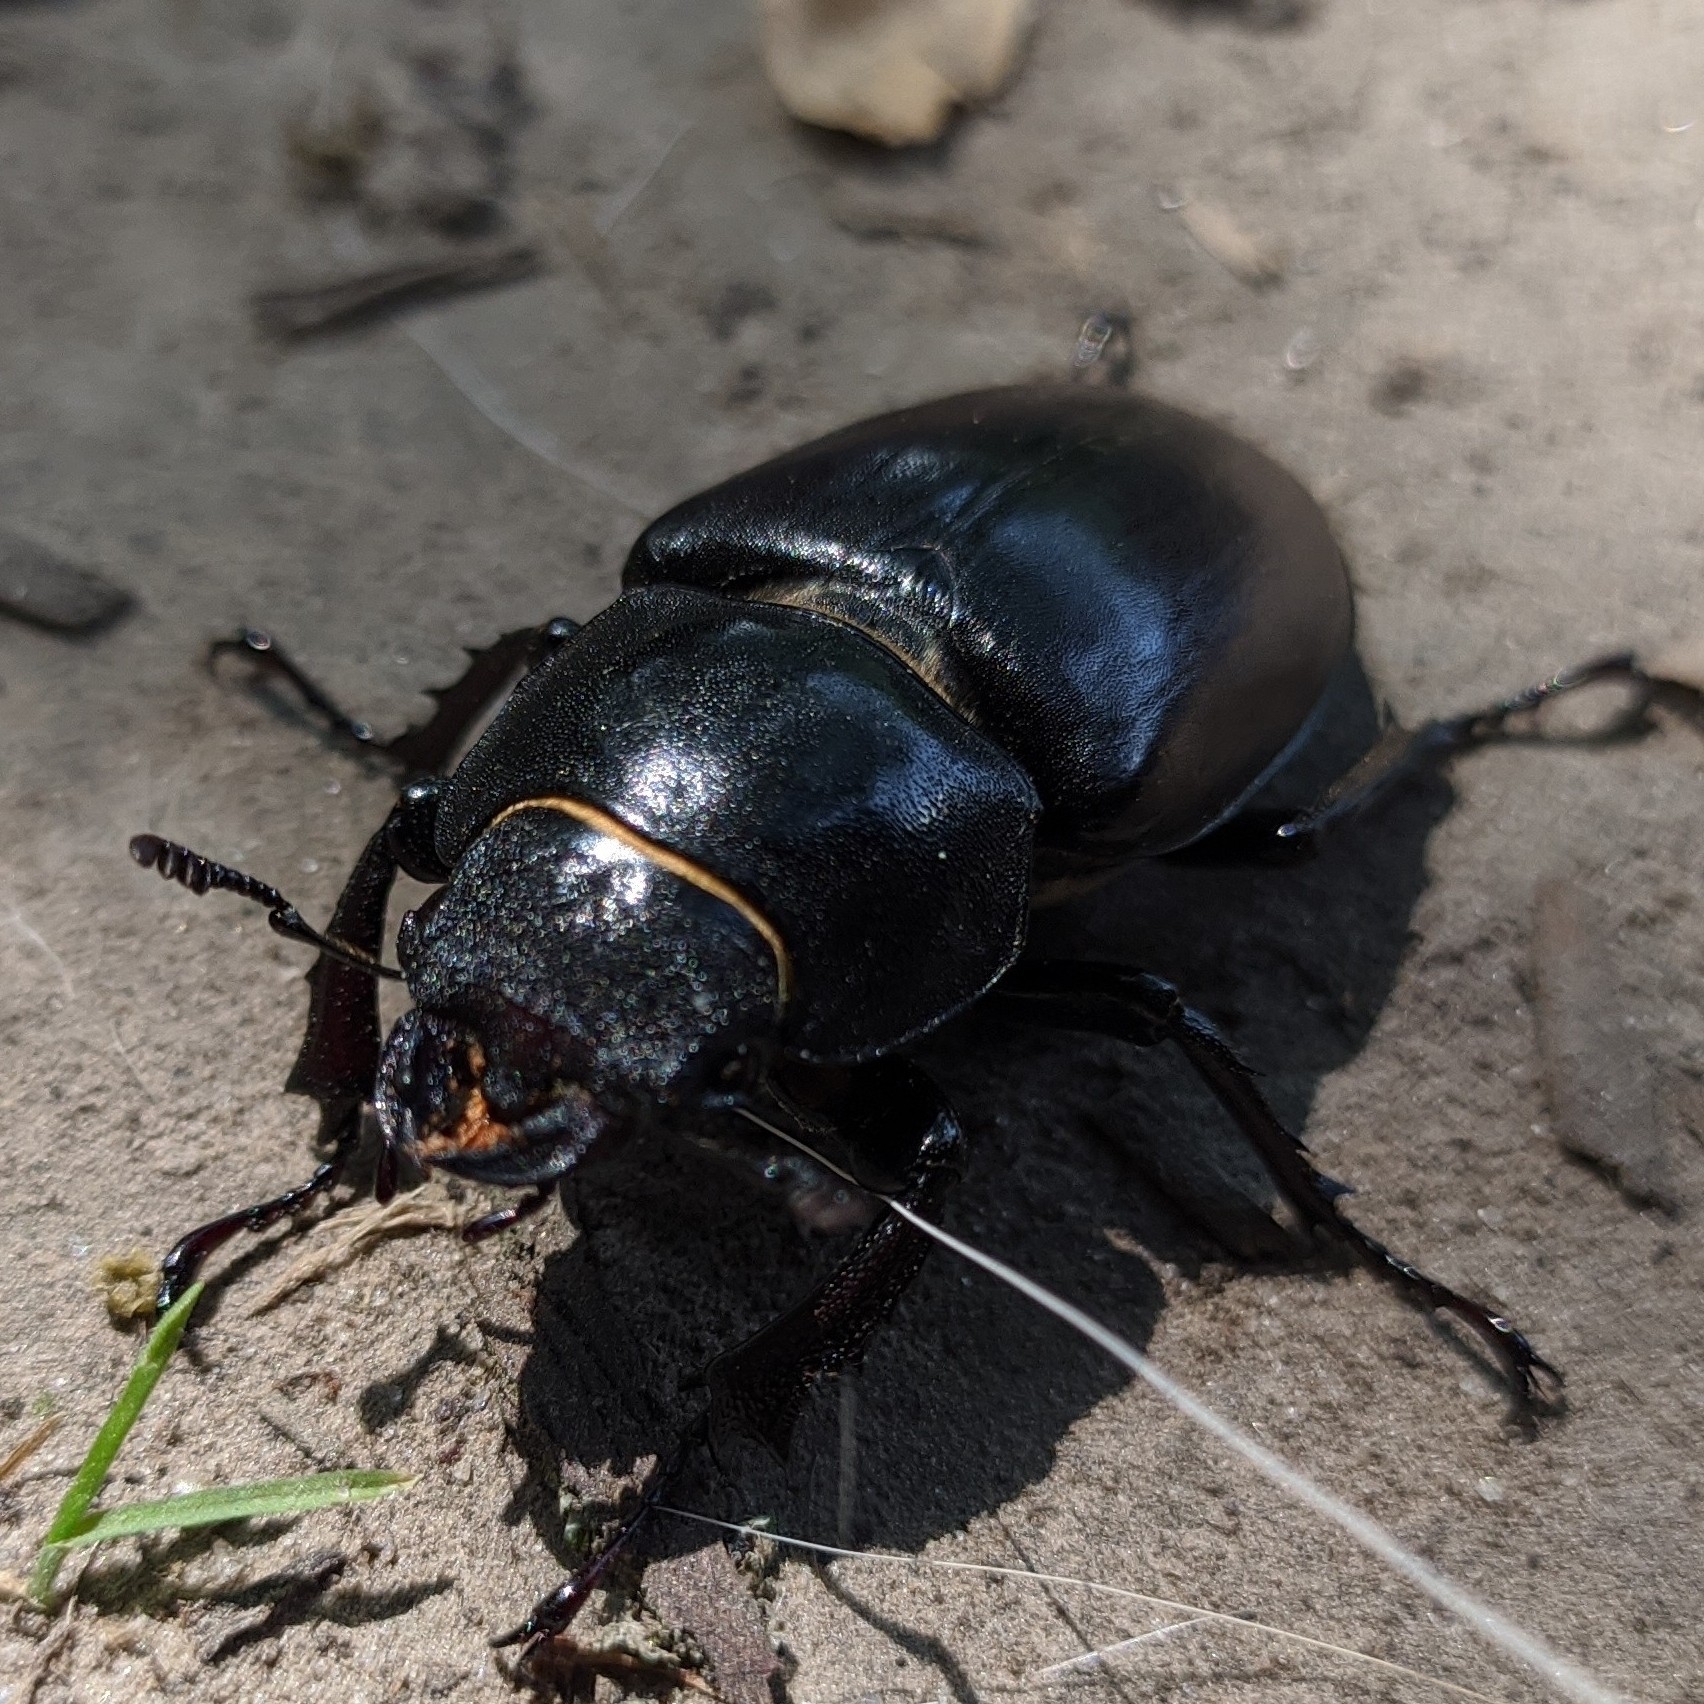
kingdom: Animalia
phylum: Arthropoda
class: Insecta
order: Coleoptera
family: Lucanidae
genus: Lucanus
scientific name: Lucanus cervus
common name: Stag beetle
